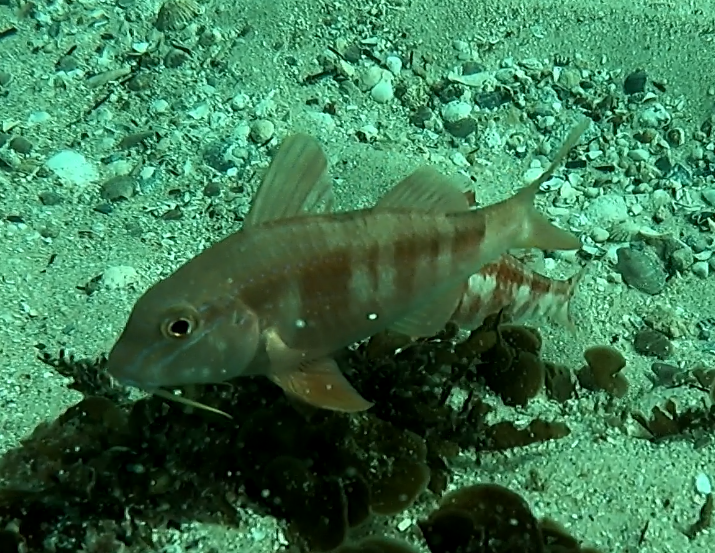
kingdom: Animalia
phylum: Chordata
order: Perciformes
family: Mullidae
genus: Upeneichthys
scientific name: Upeneichthys lineatus
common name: Red mullet
